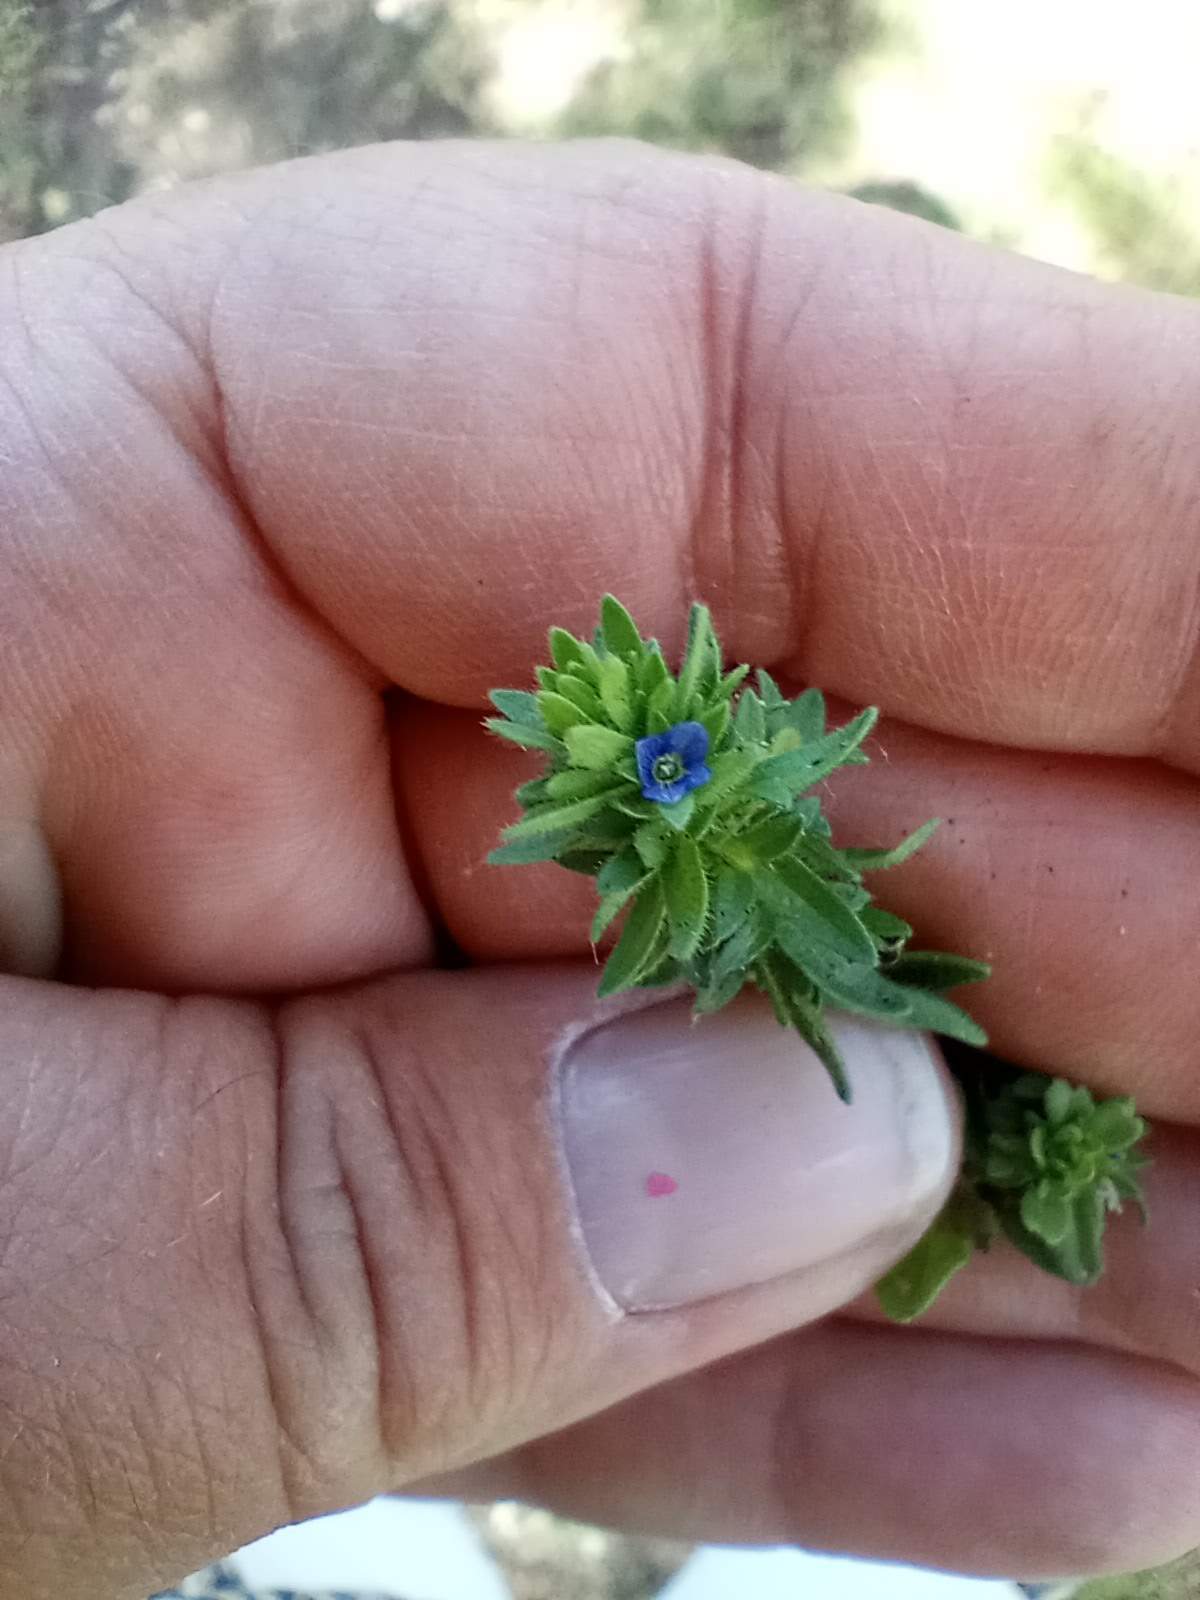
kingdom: Plantae
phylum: Tracheophyta
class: Magnoliopsida
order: Lamiales
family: Plantaginaceae
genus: Veronica
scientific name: Veronica arvensis
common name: Corn speedwell
